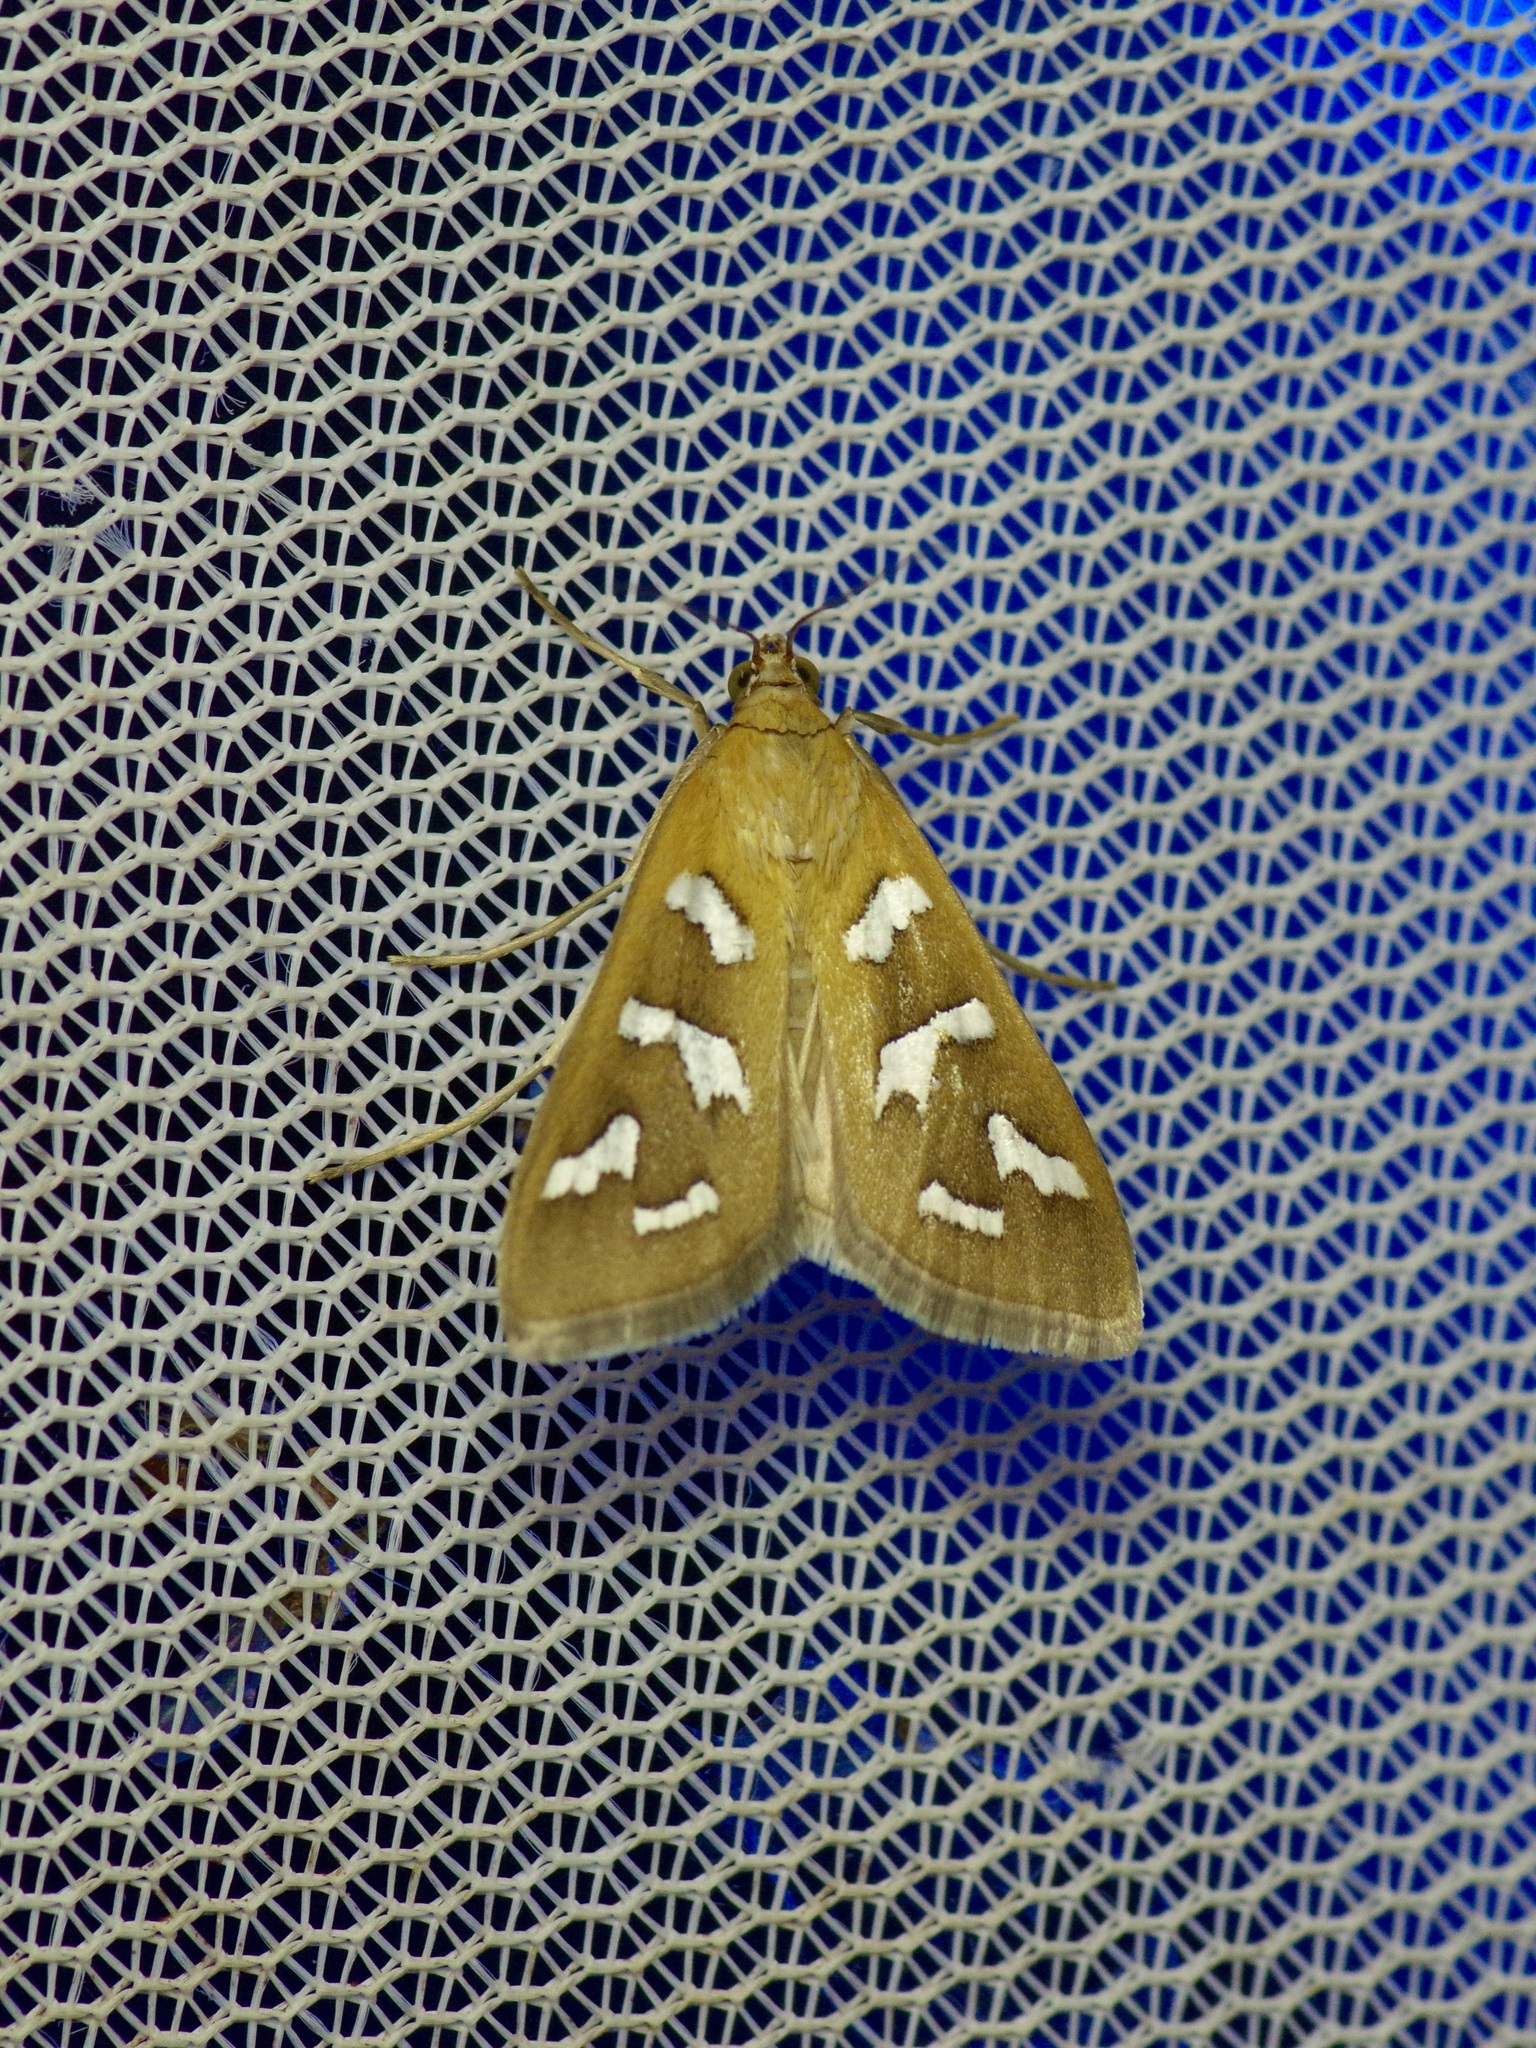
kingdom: Animalia
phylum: Arthropoda
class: Insecta
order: Lepidoptera
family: Crambidae
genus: Diastictis
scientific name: Diastictis fracturalis
